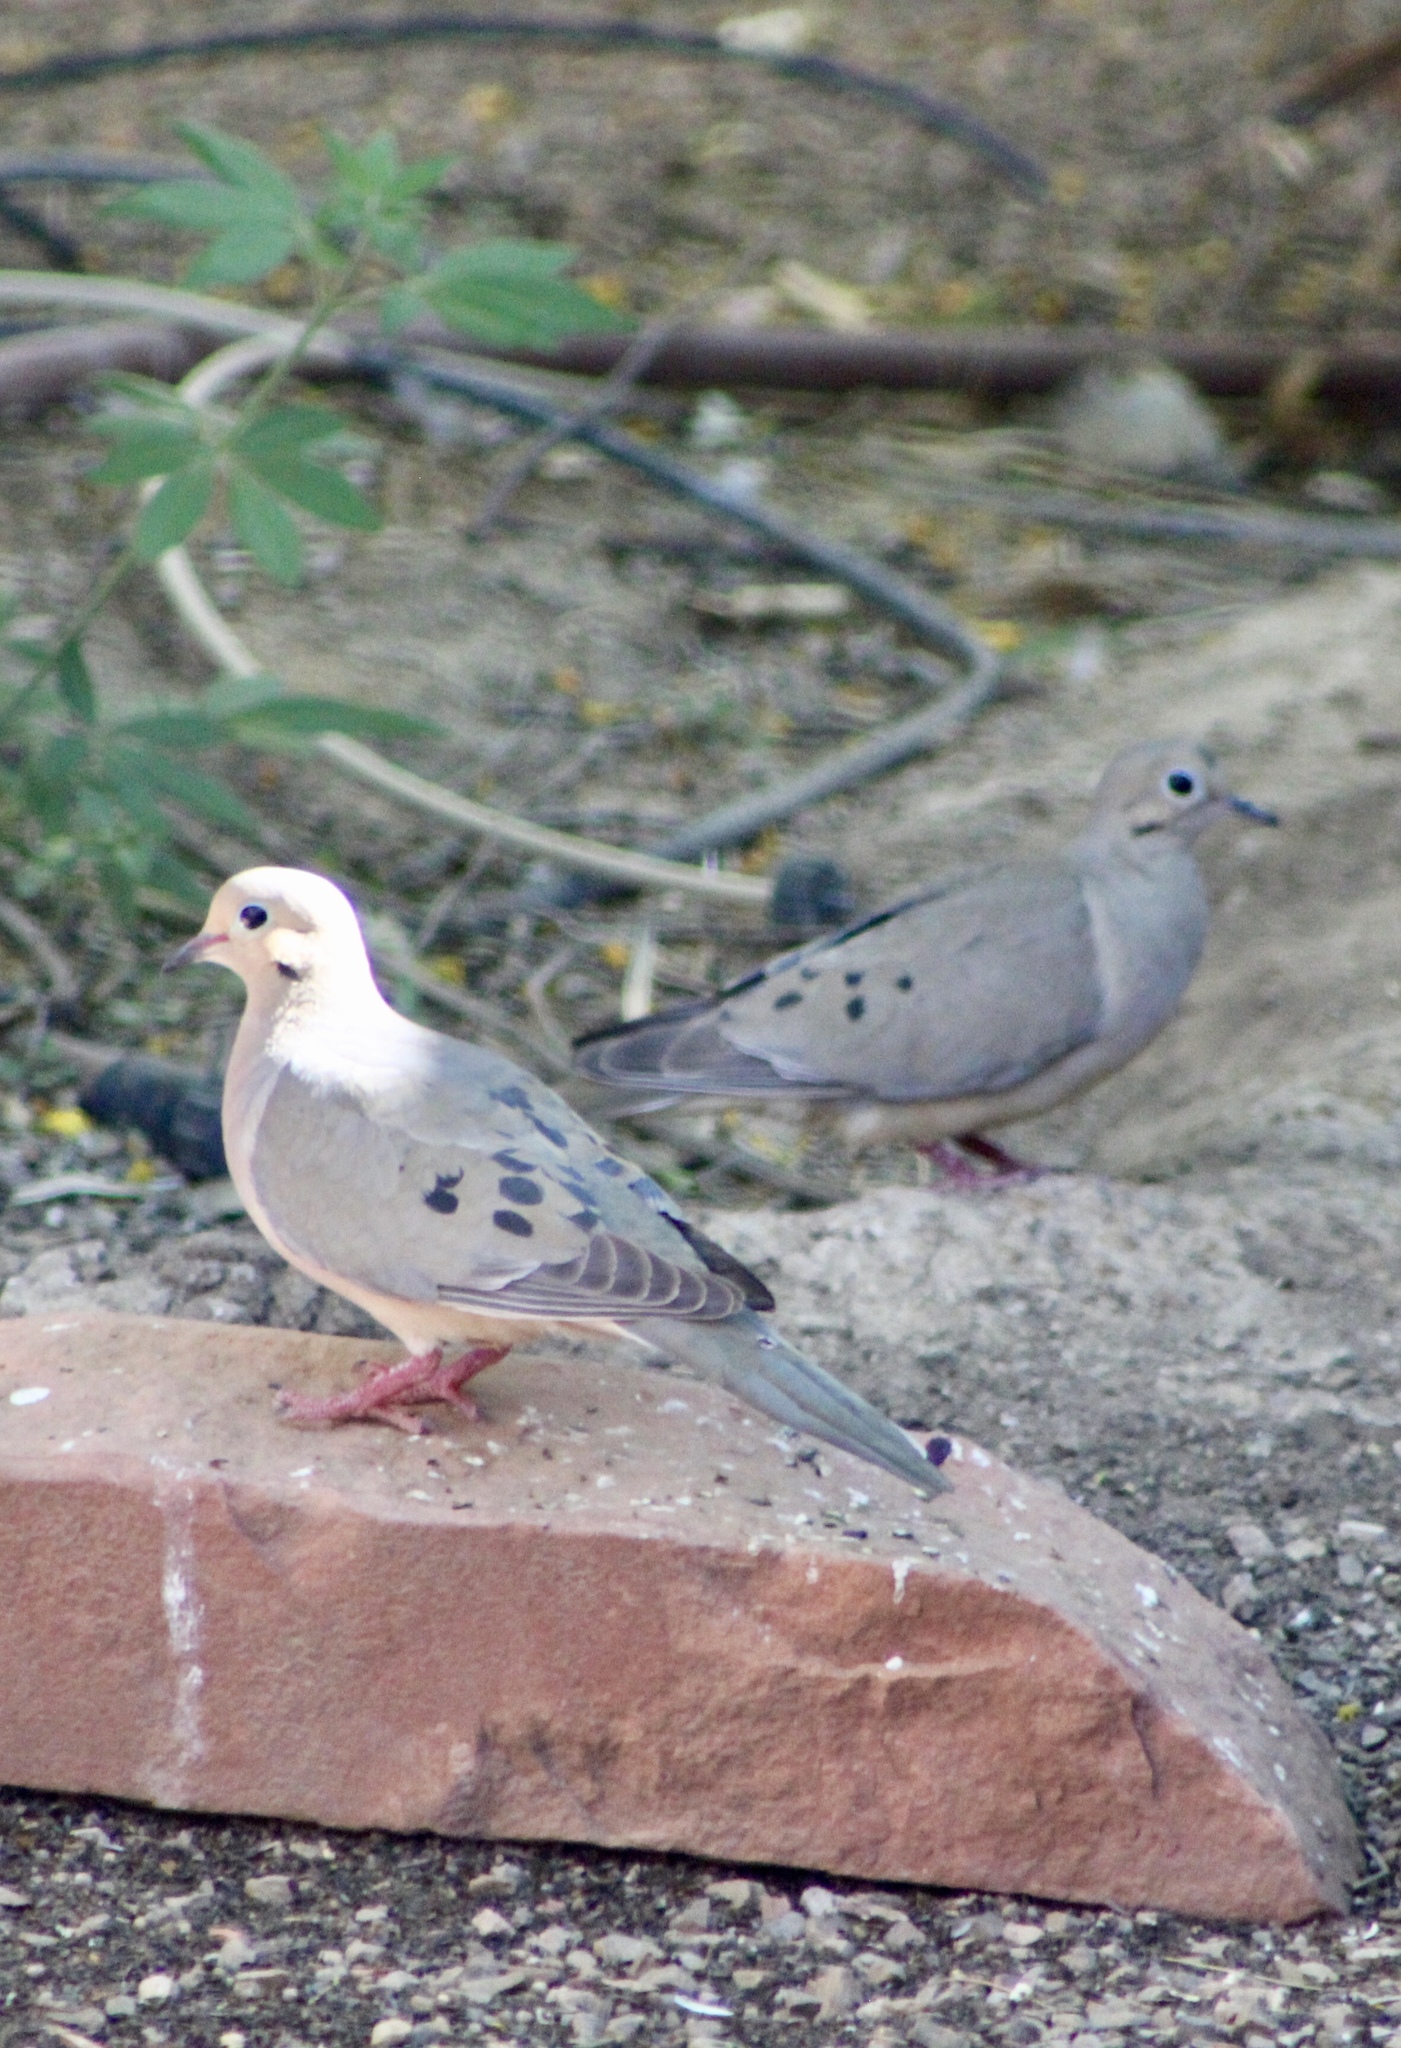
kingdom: Animalia
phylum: Chordata
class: Aves
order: Columbiformes
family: Columbidae
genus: Zenaida
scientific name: Zenaida macroura
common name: Mourning dove
